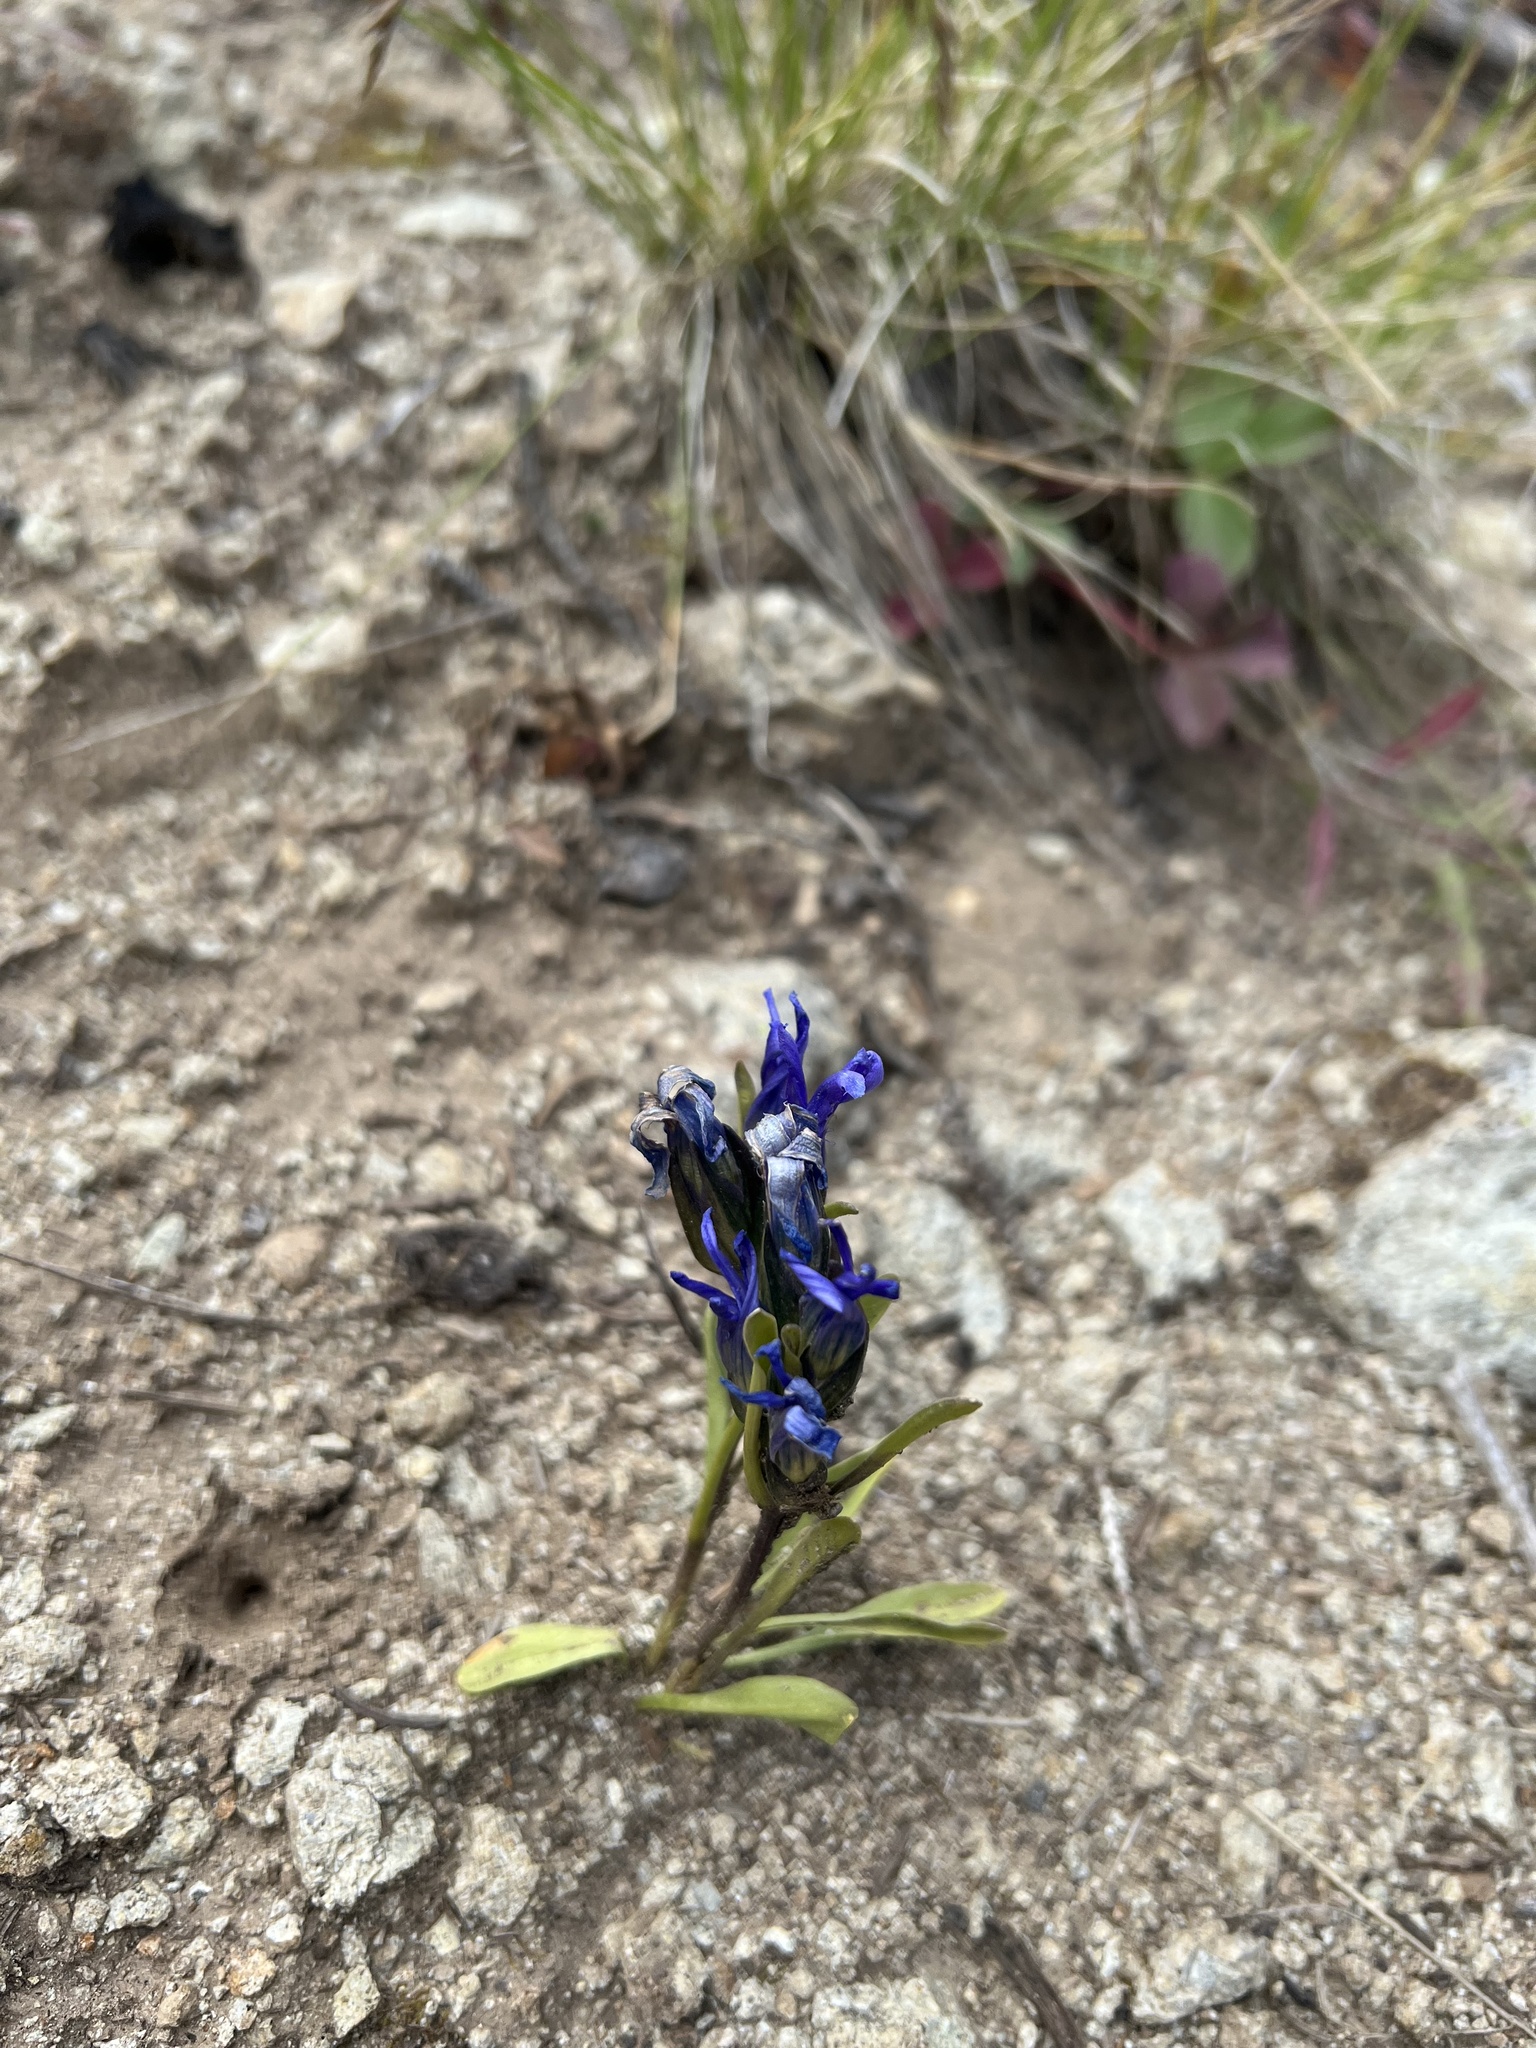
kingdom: Plantae
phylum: Tracheophyta
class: Magnoliopsida
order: Gentianales
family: Gentianaceae
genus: Gentianopsis
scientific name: Gentianopsis barbellata
